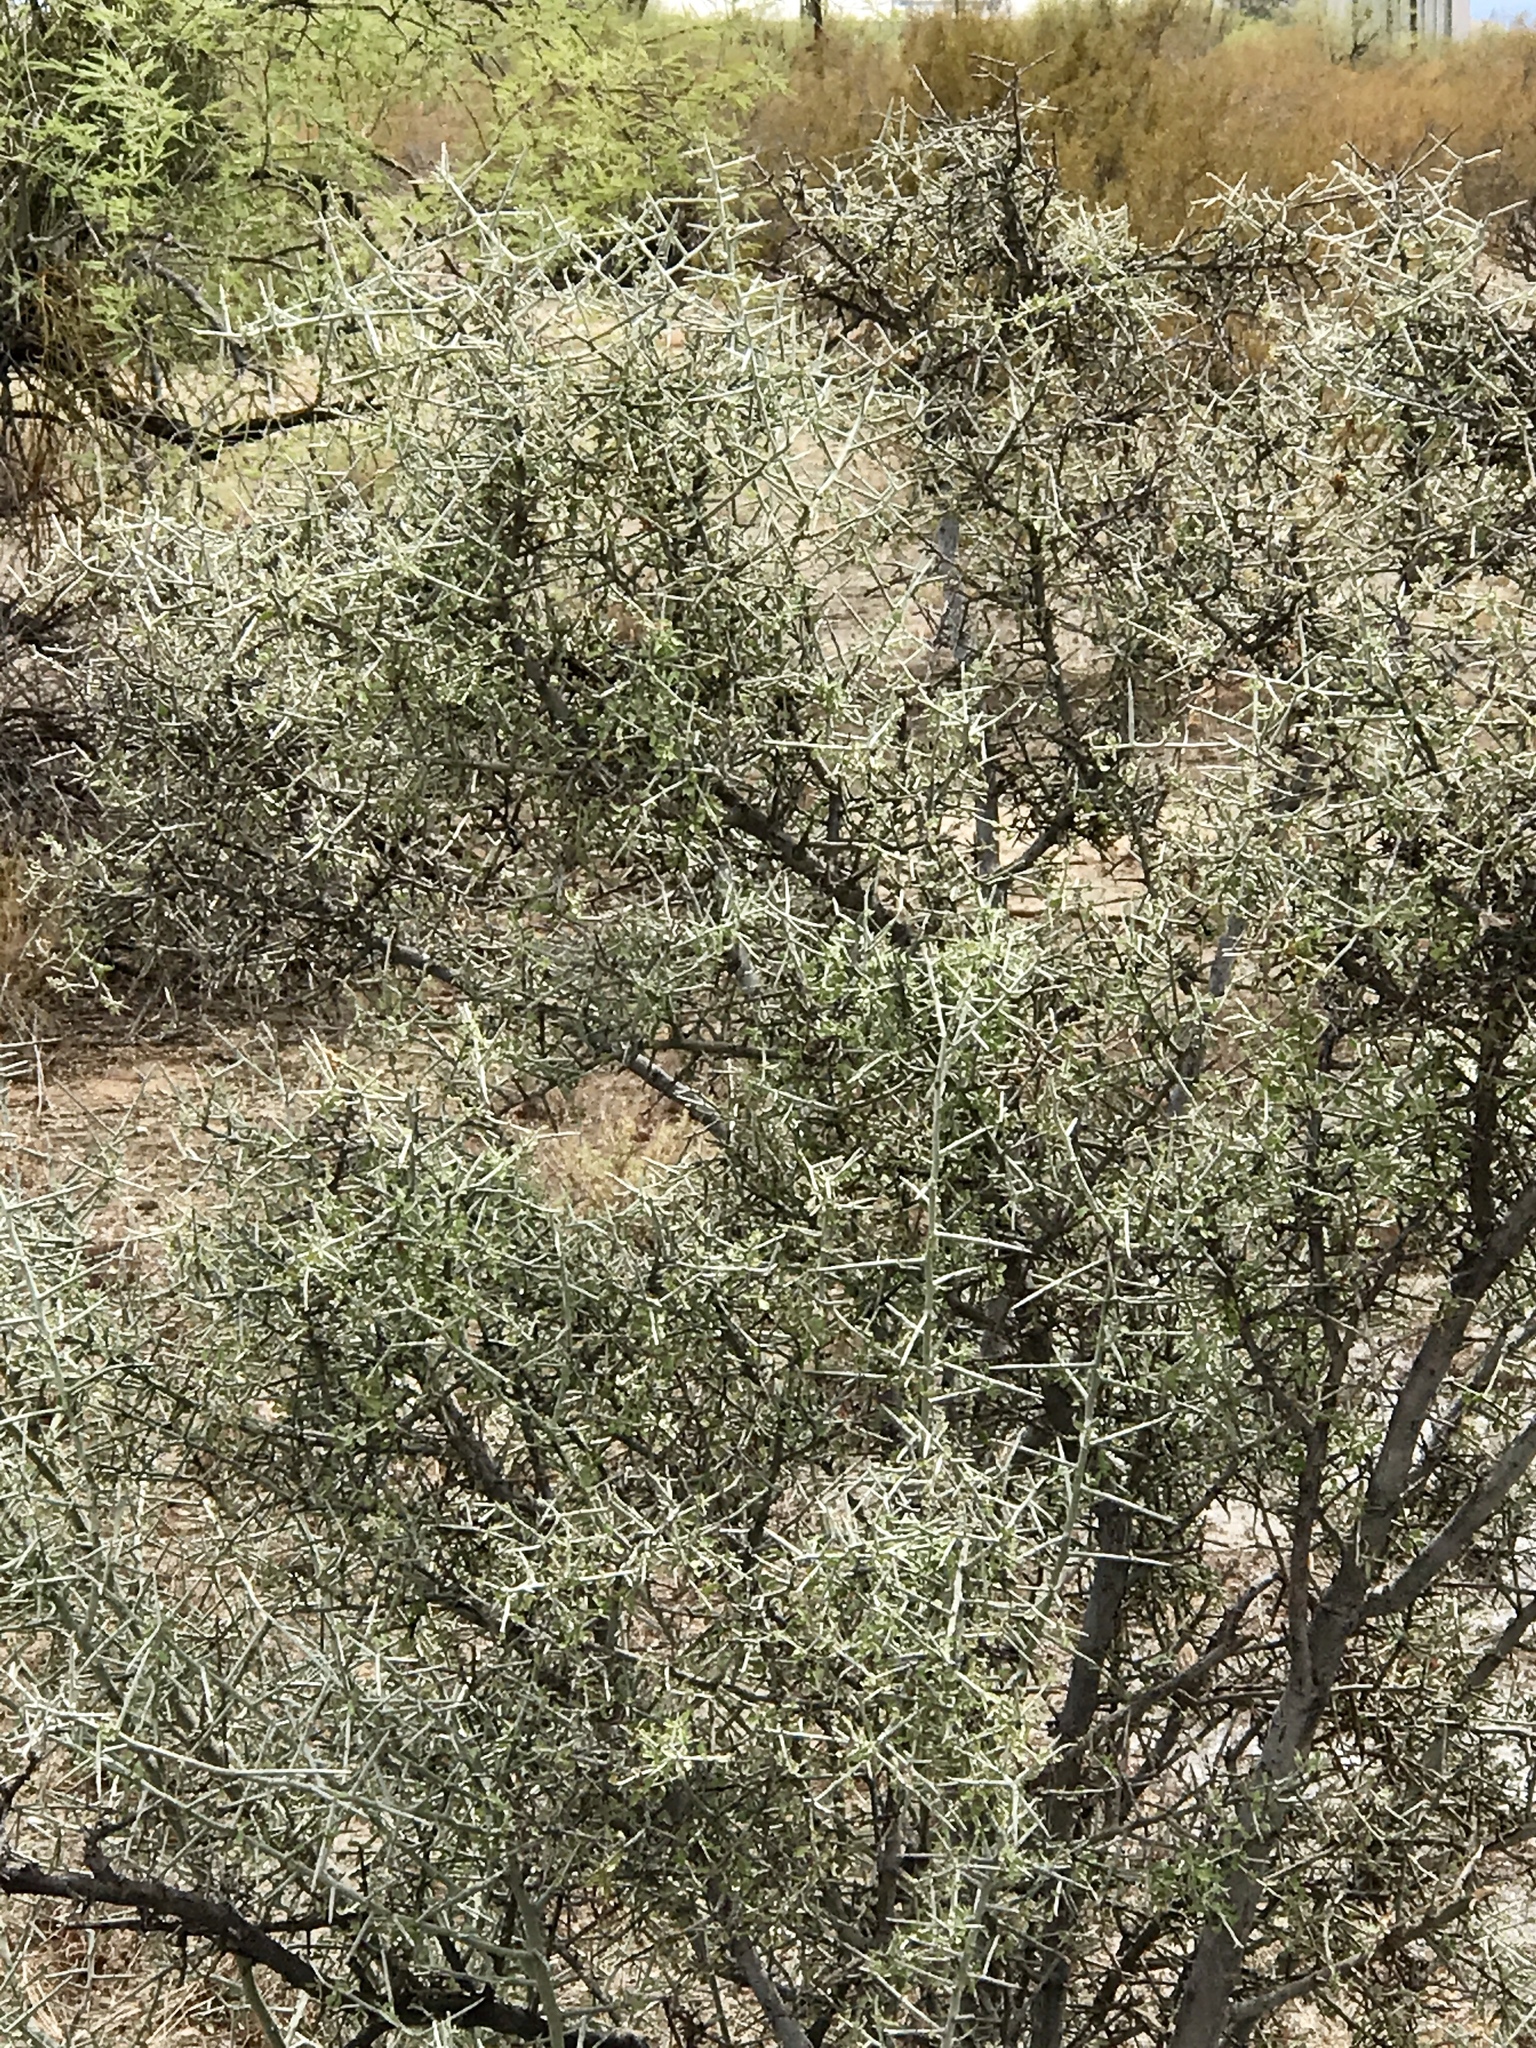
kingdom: Plantae
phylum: Tracheophyta
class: Magnoliopsida
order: Rosales
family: Rhamnaceae
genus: Sarcomphalus
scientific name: Sarcomphalus obtusifolius
